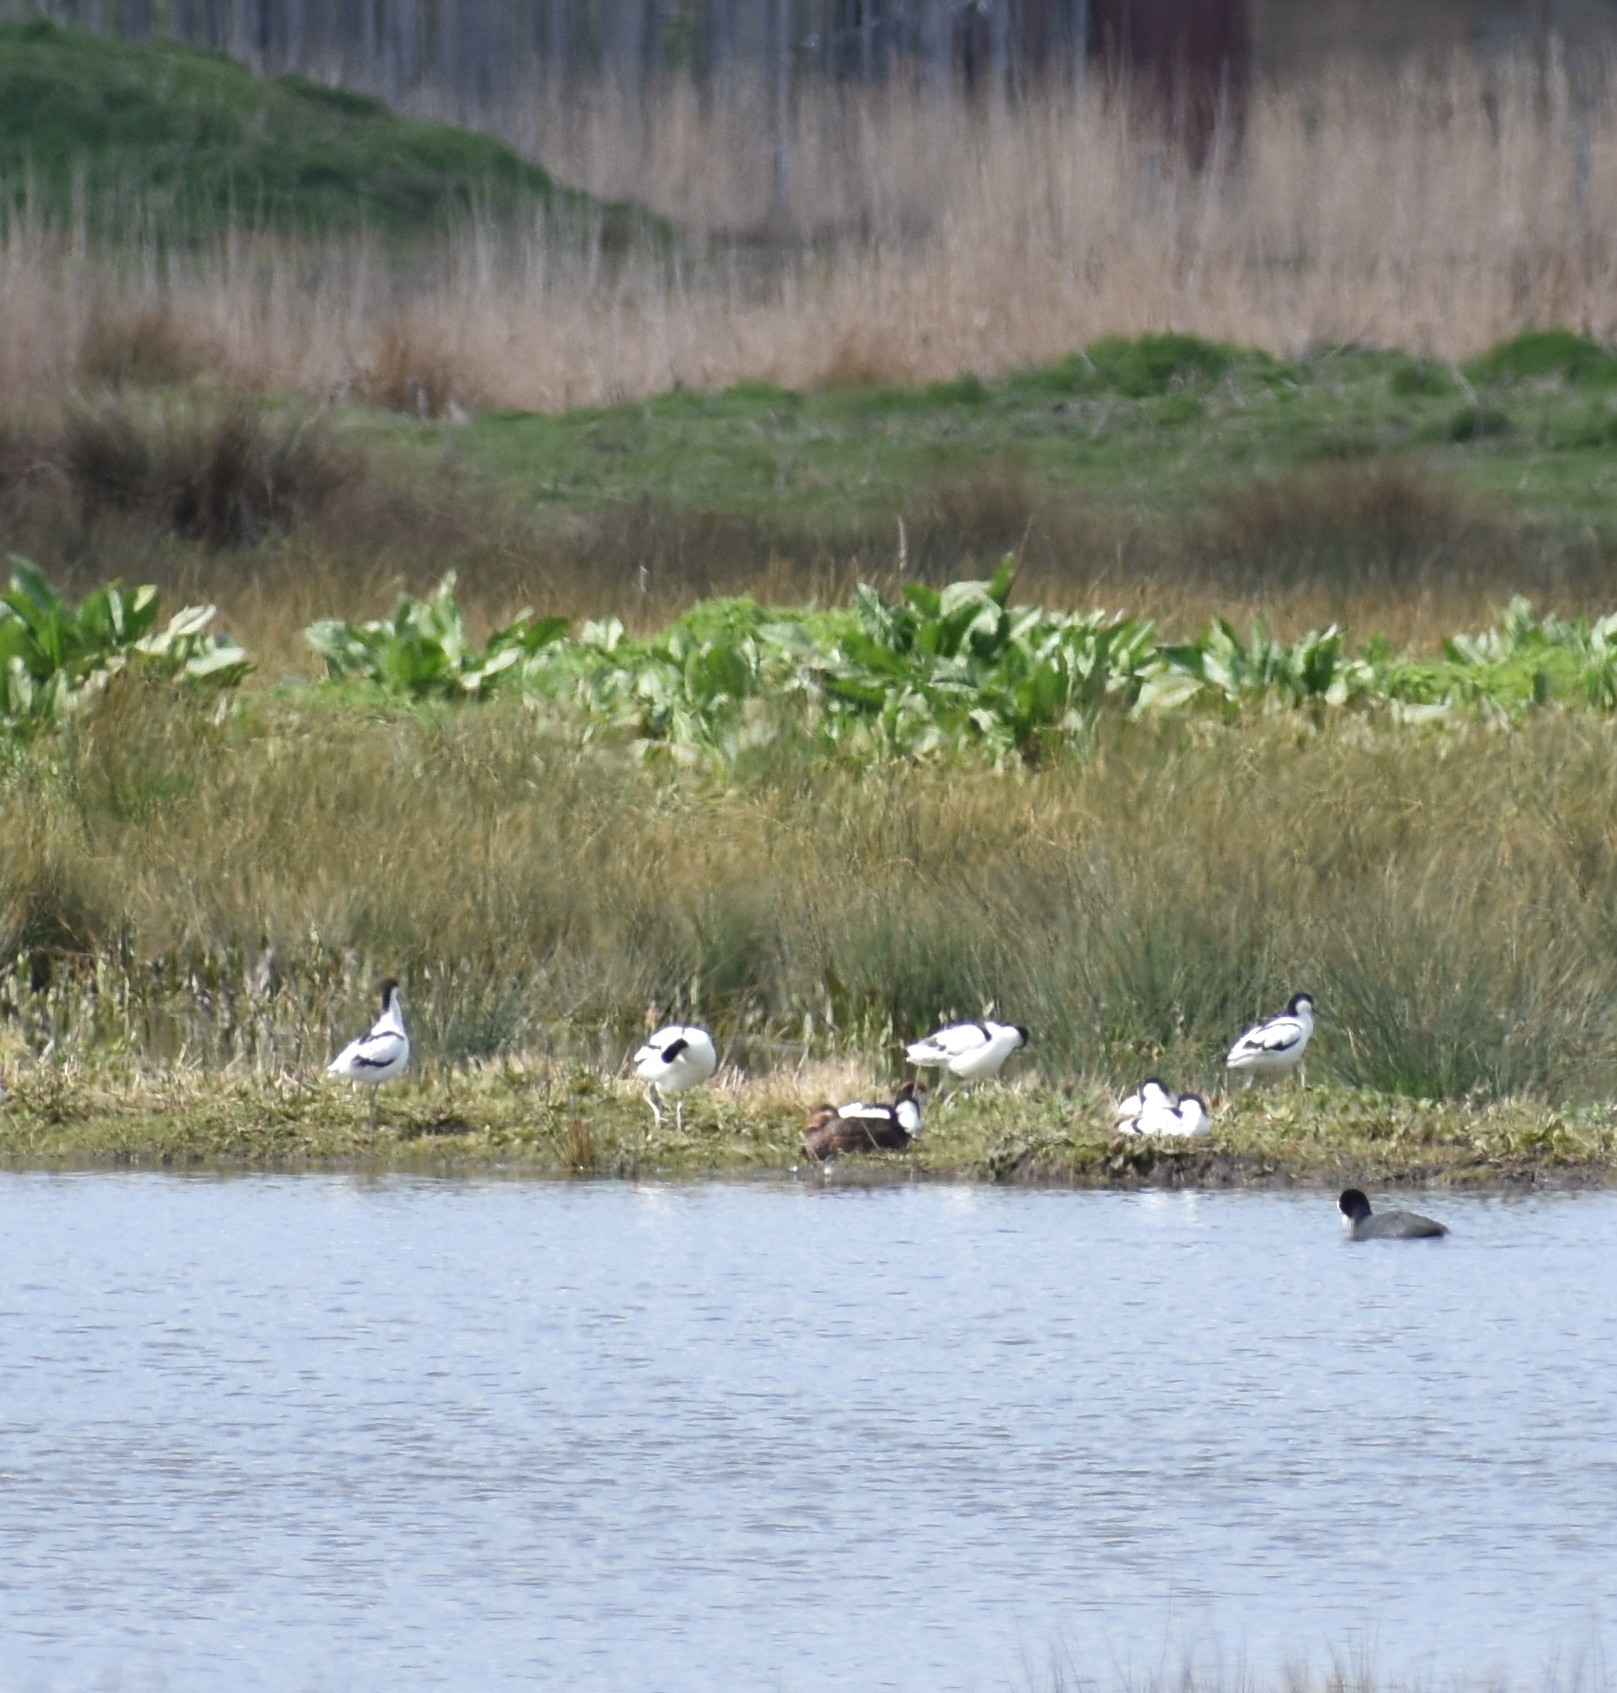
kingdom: Animalia
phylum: Chordata
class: Aves
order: Charadriiformes
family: Recurvirostridae
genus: Recurvirostra
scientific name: Recurvirostra avosetta
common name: Pied avocet
